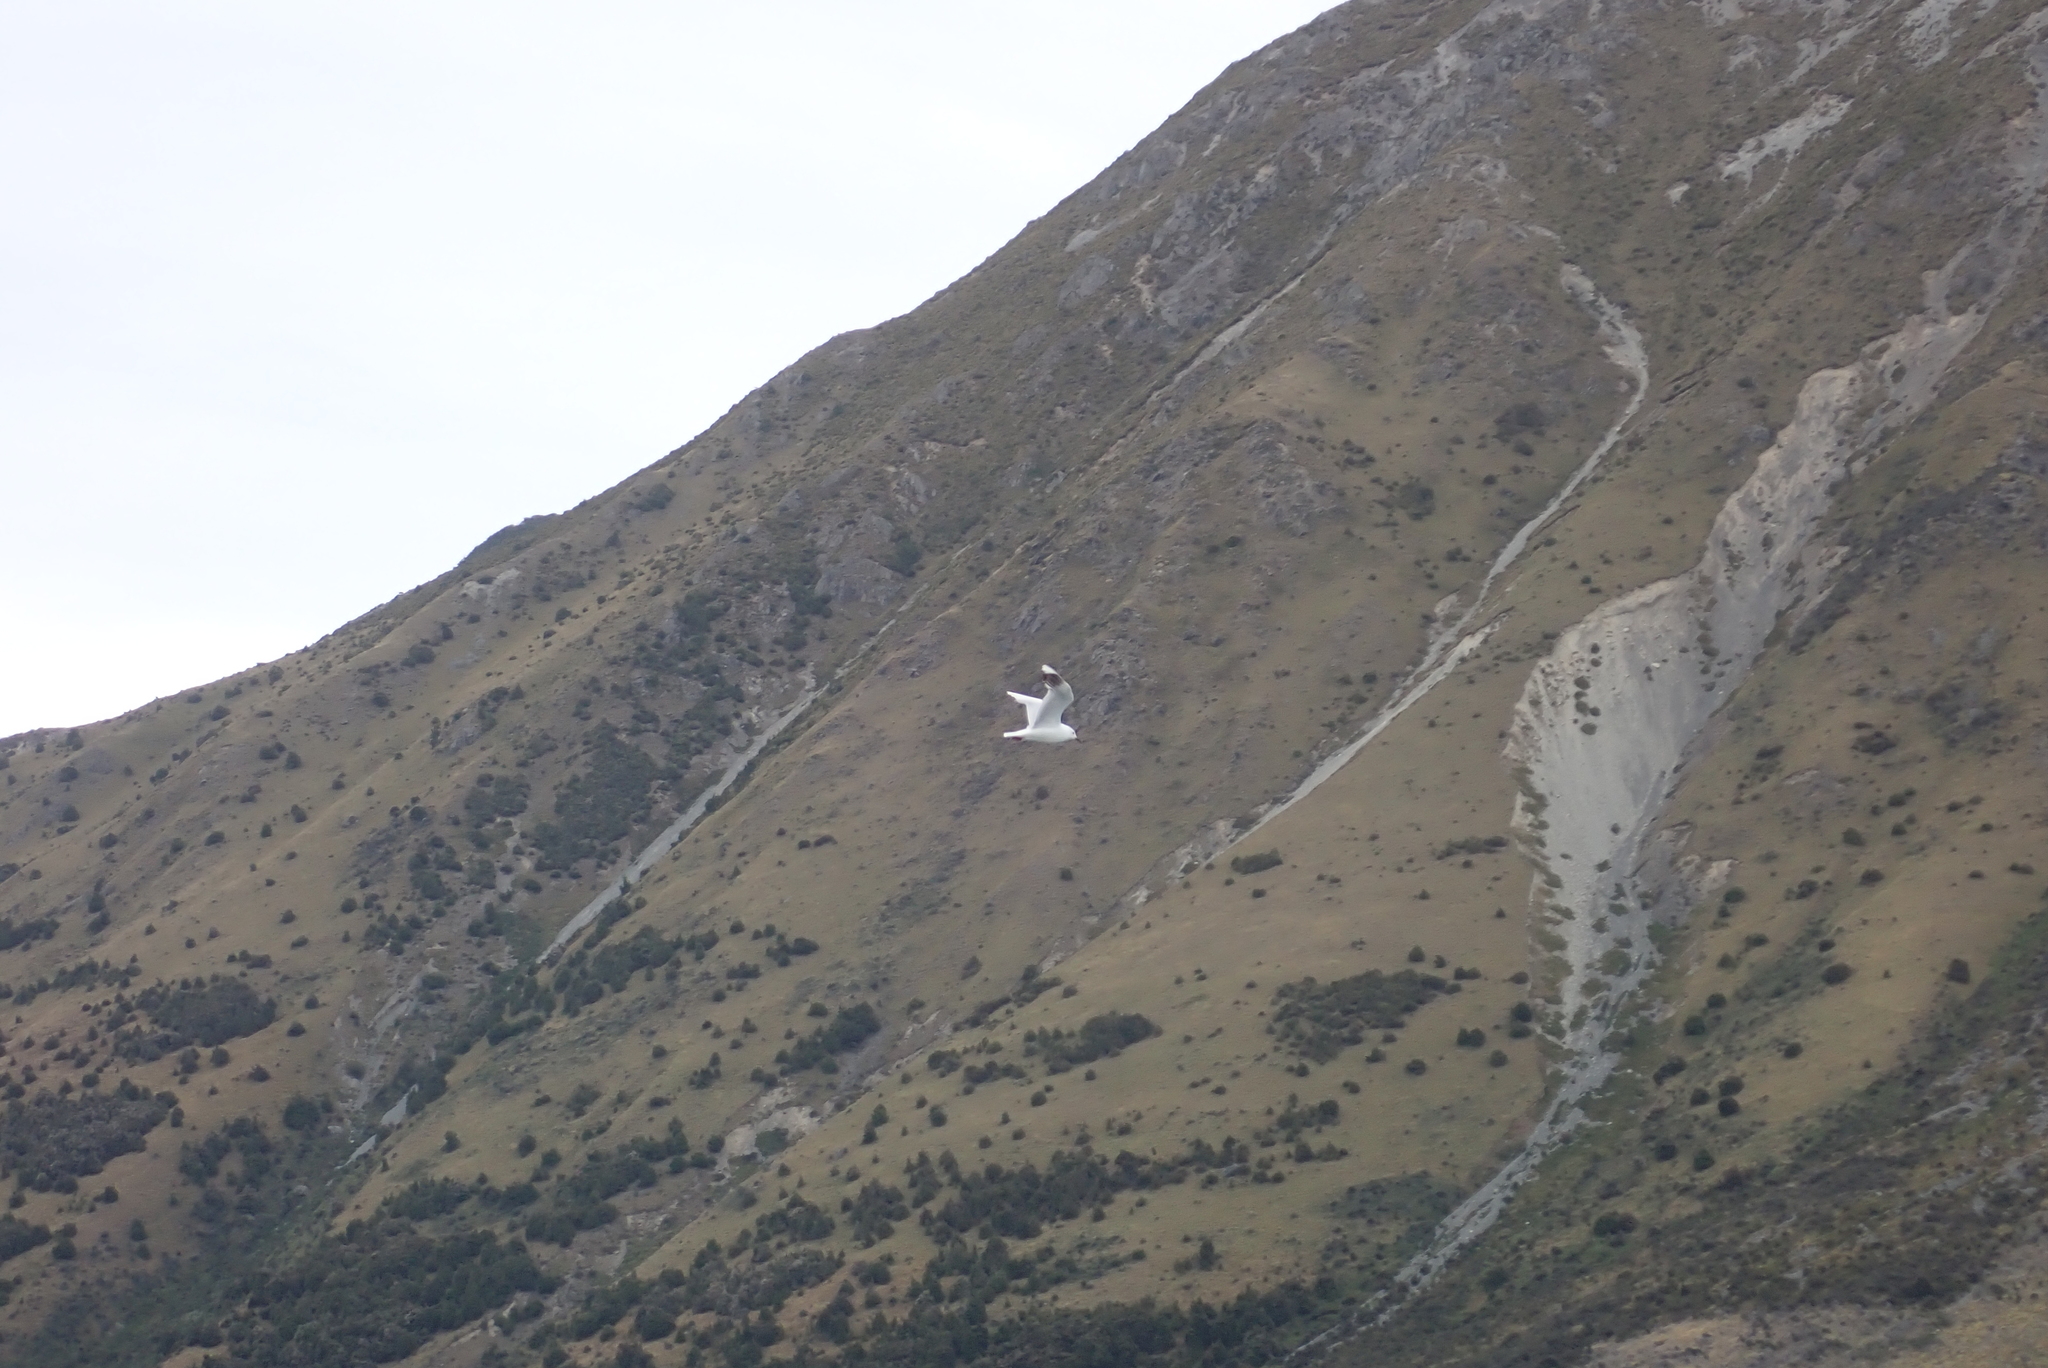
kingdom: Animalia
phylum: Chordata
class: Aves
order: Charadriiformes
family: Laridae
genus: Chroicocephalus
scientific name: Chroicocephalus bulleri
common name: Black-billed gull
